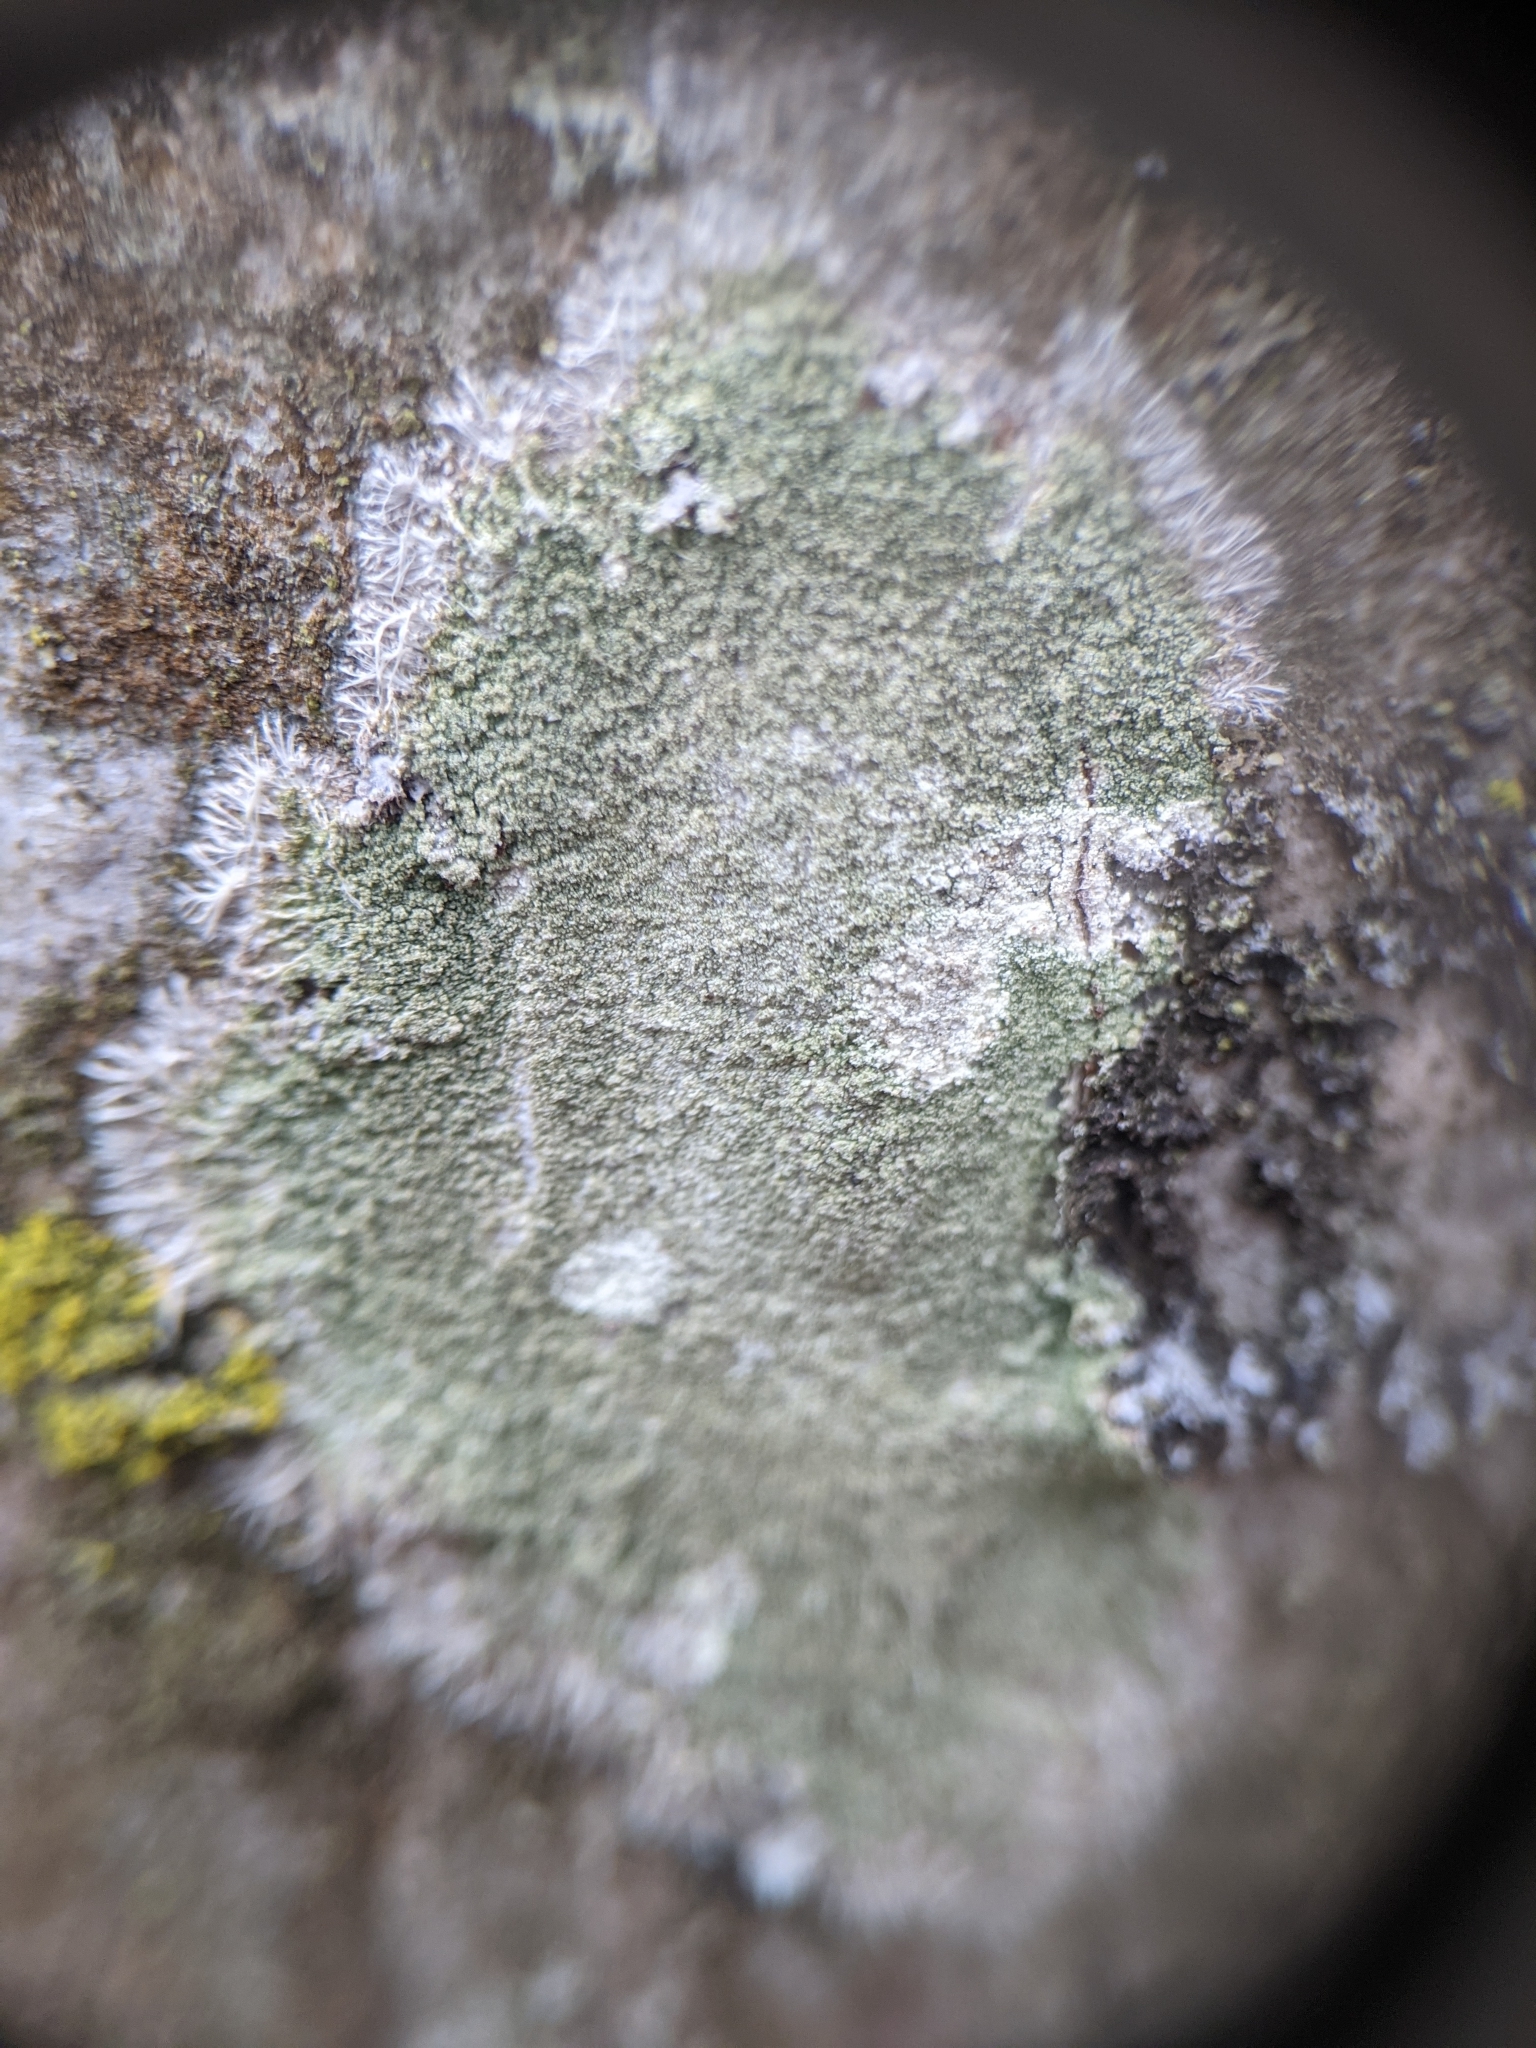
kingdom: Fungi
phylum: Ascomycota
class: Lecanoromycetes
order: Pertusariales
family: Pertusariaceae
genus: Verseghya
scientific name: Verseghya thysanophora
